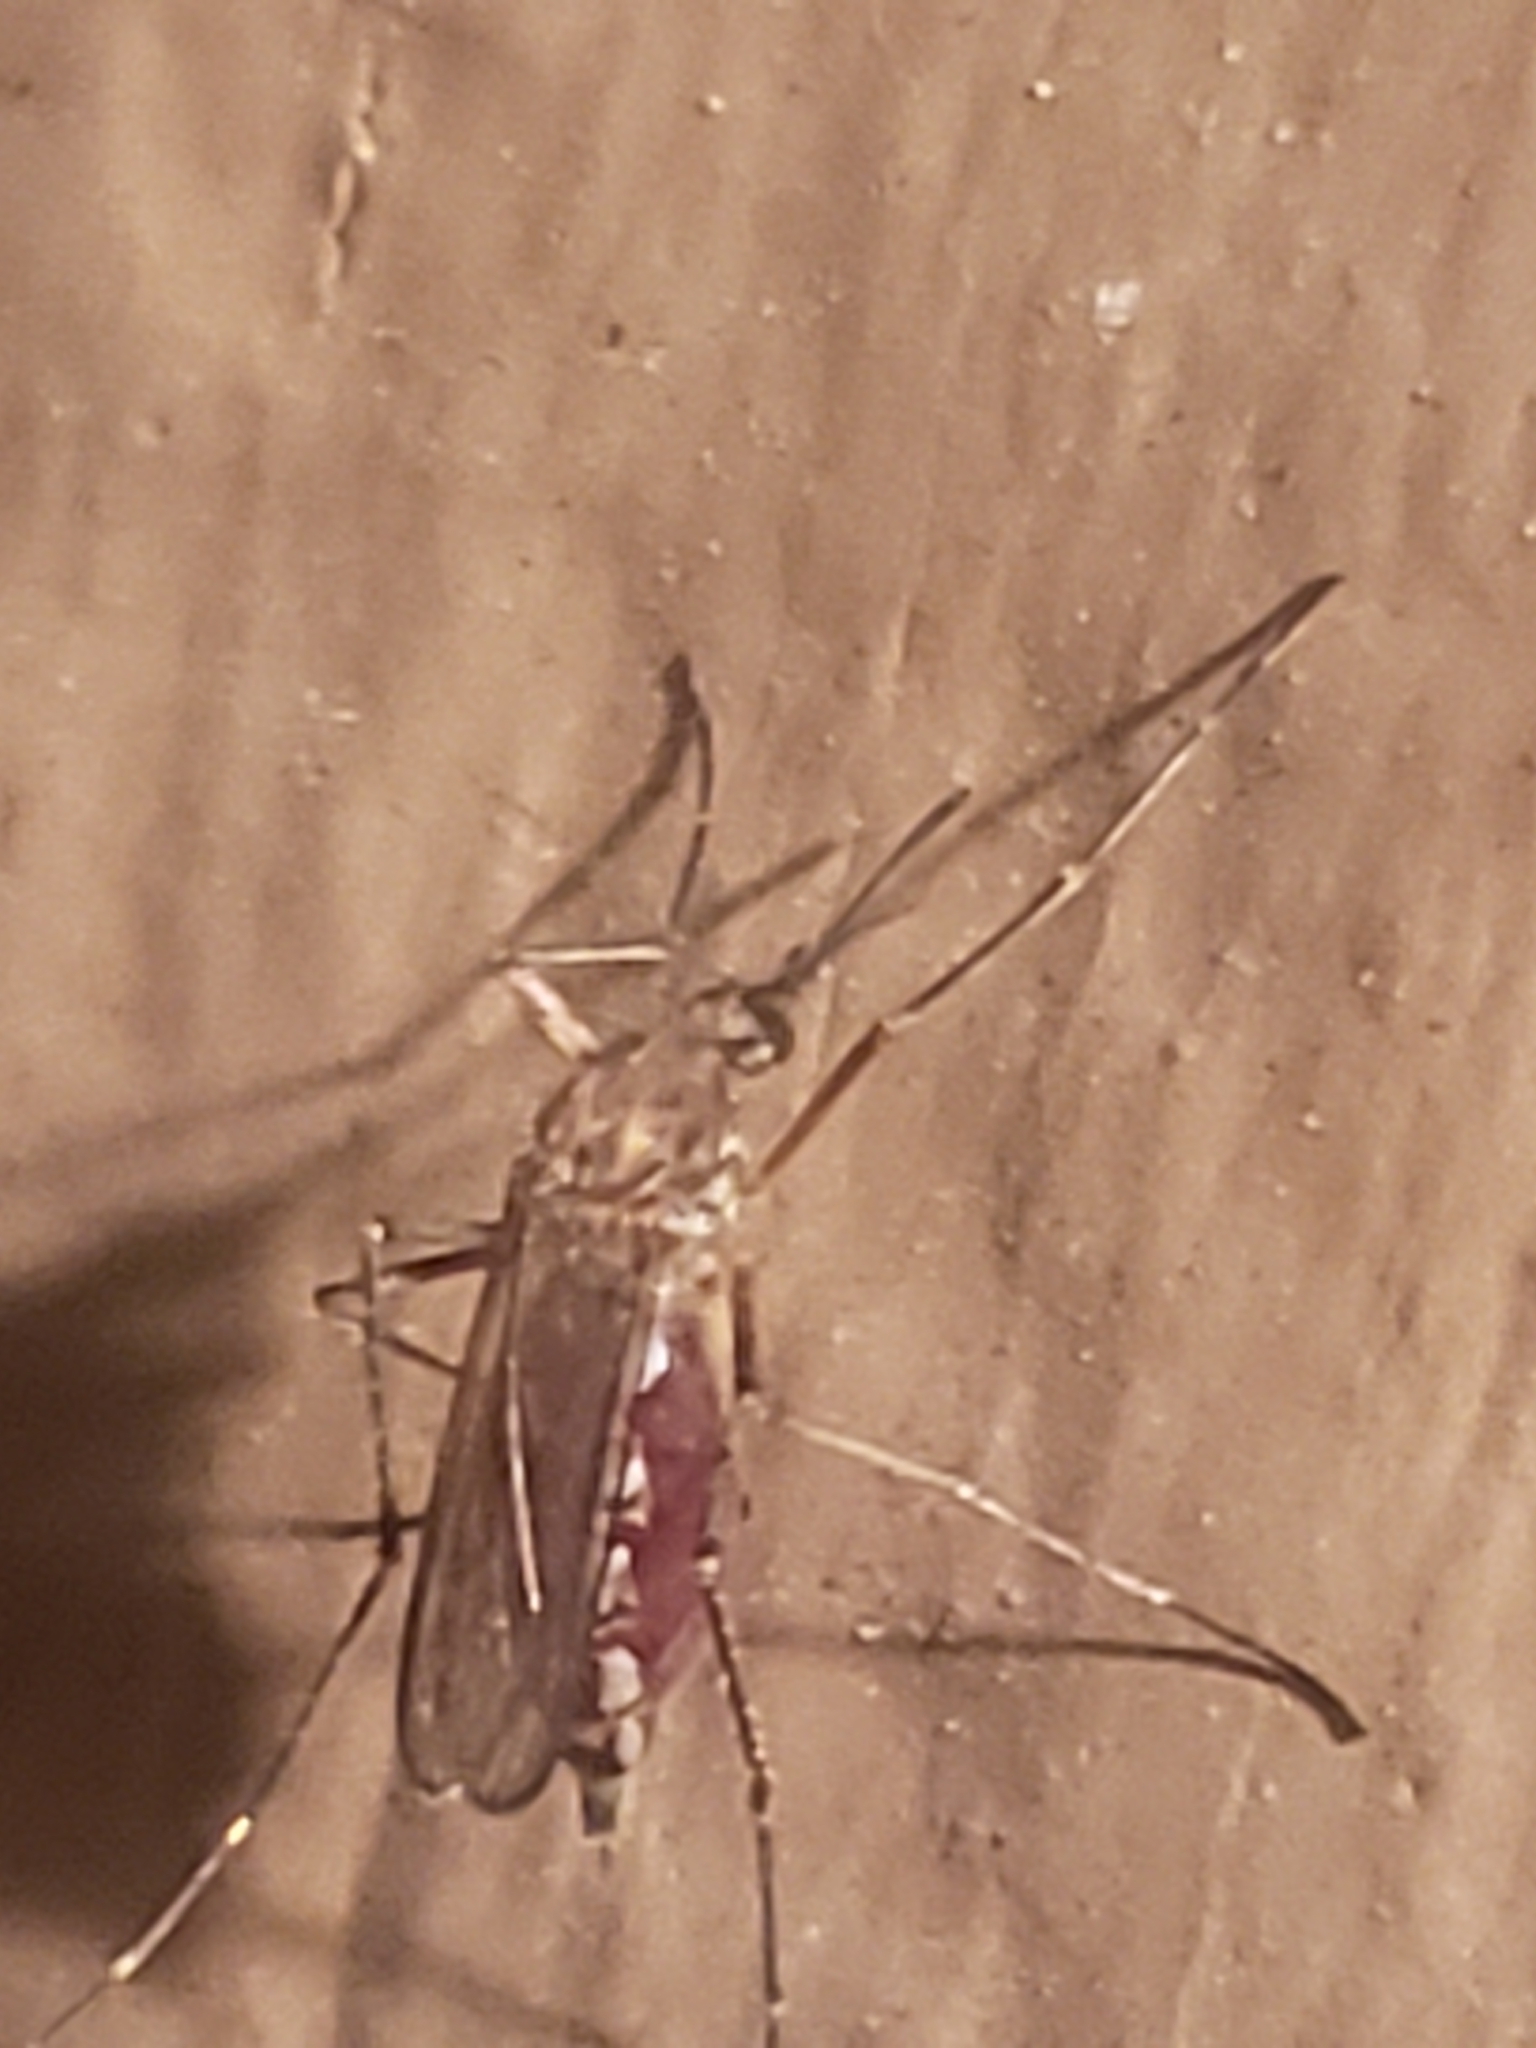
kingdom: Animalia
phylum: Arthropoda
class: Insecta
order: Diptera
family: Culicidae
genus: Aedes
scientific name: Aedes vexans
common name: Inland floodwater mosquito
